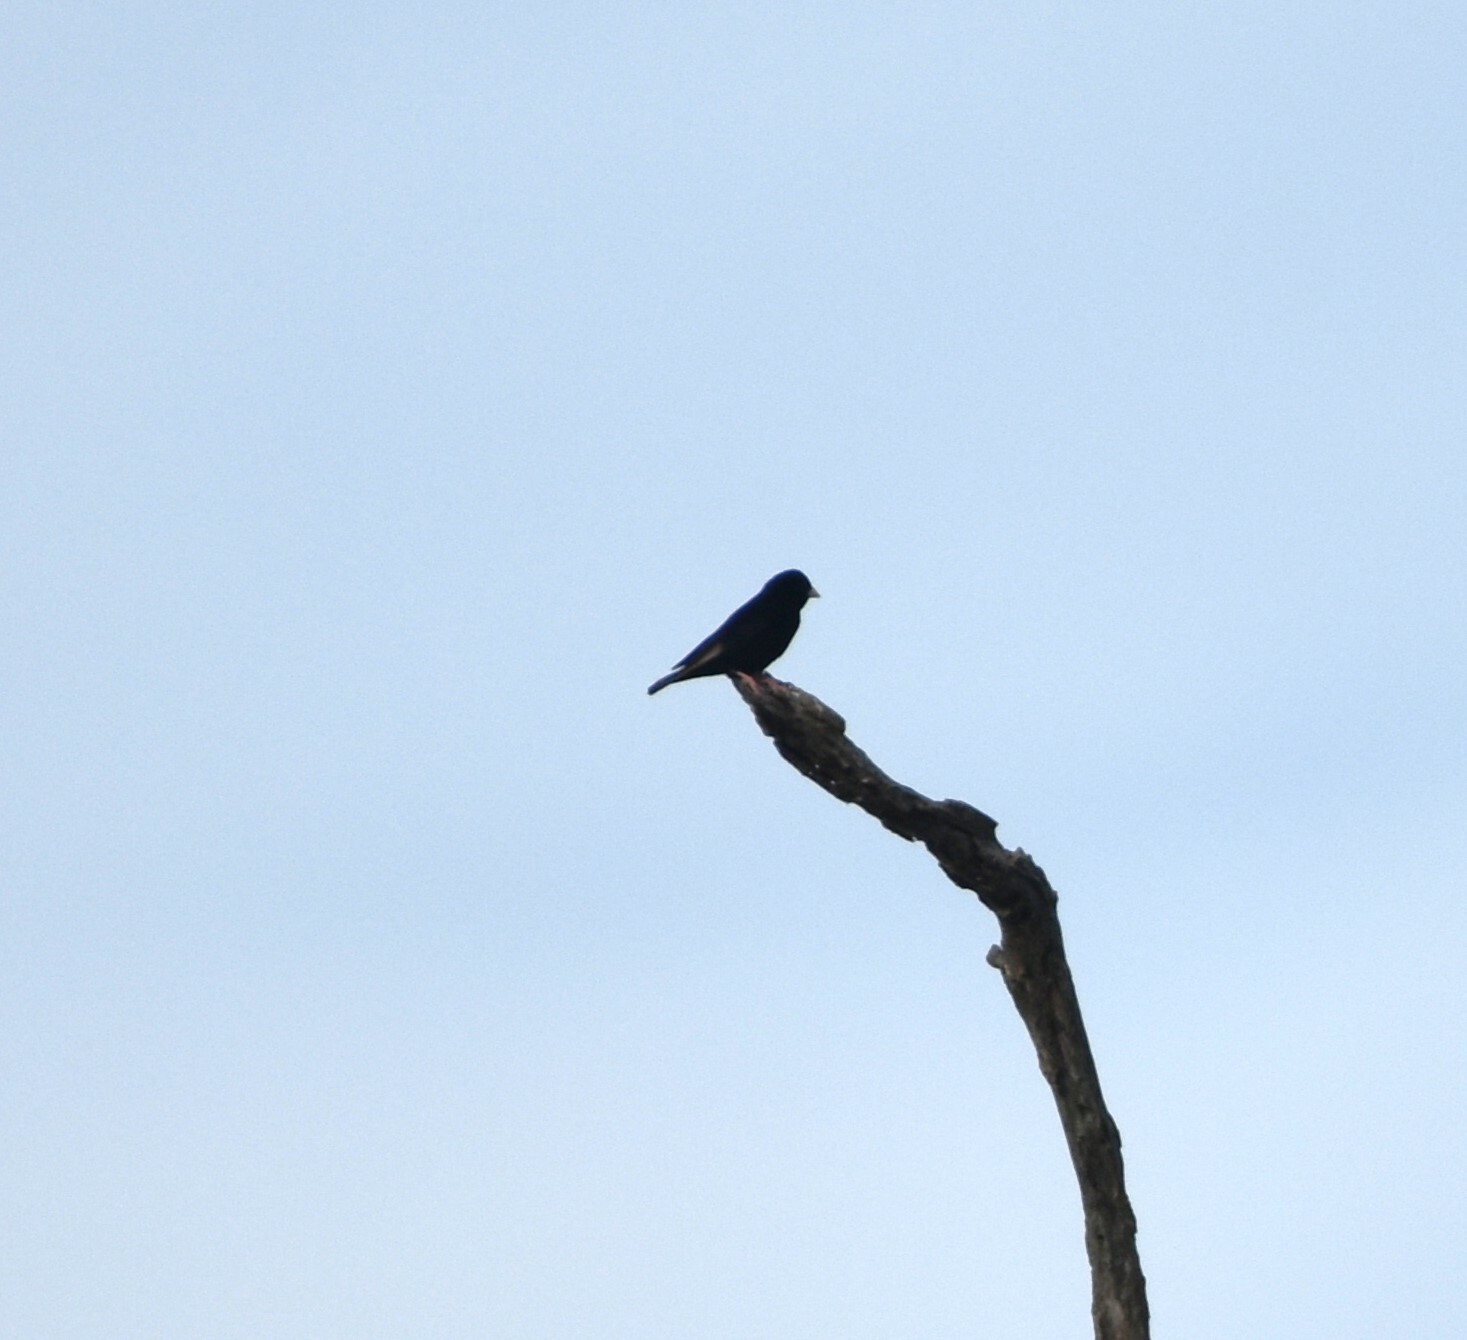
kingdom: Animalia
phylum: Chordata
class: Aves
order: Passeriformes
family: Viduidae
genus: Vidua
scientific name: Vidua purpurascens
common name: Purple indigobird
